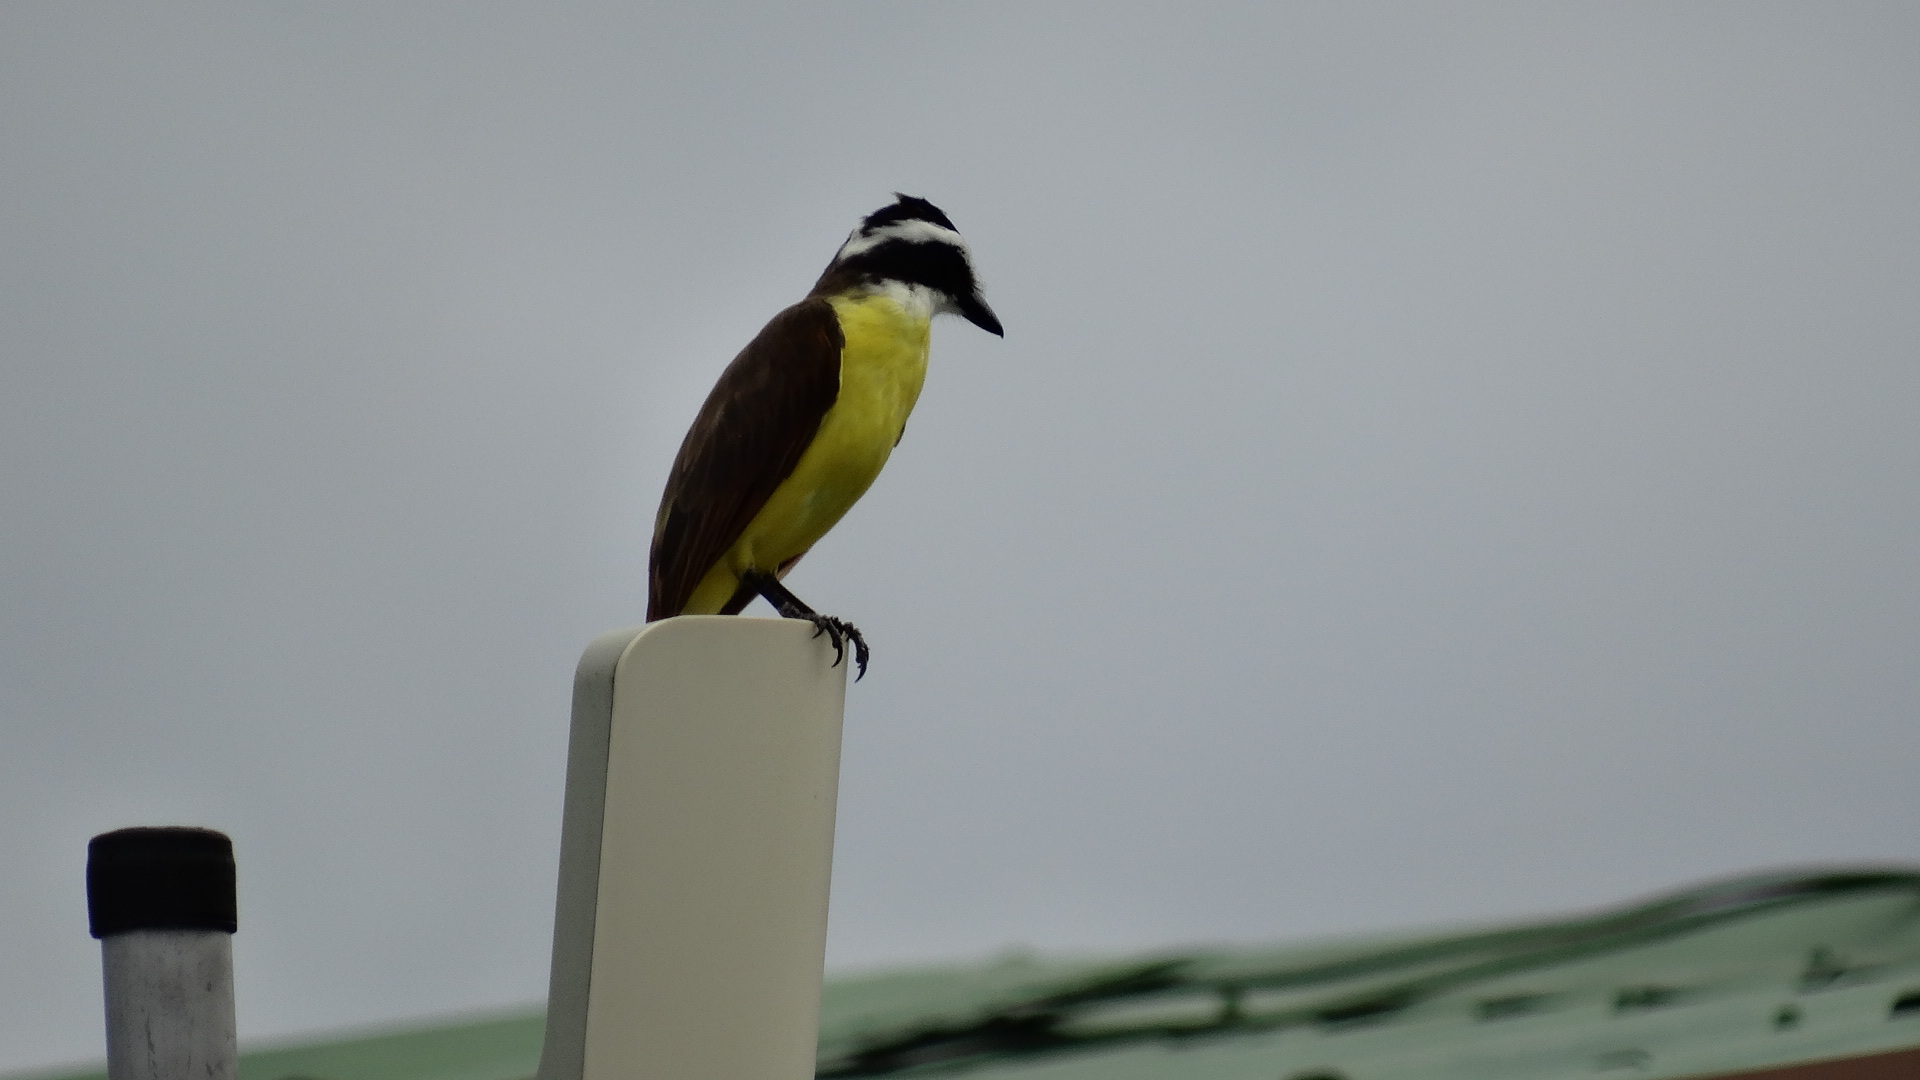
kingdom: Animalia
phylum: Chordata
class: Aves
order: Passeriformes
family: Tyrannidae
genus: Pitangus
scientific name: Pitangus sulphuratus
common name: Great kiskadee
